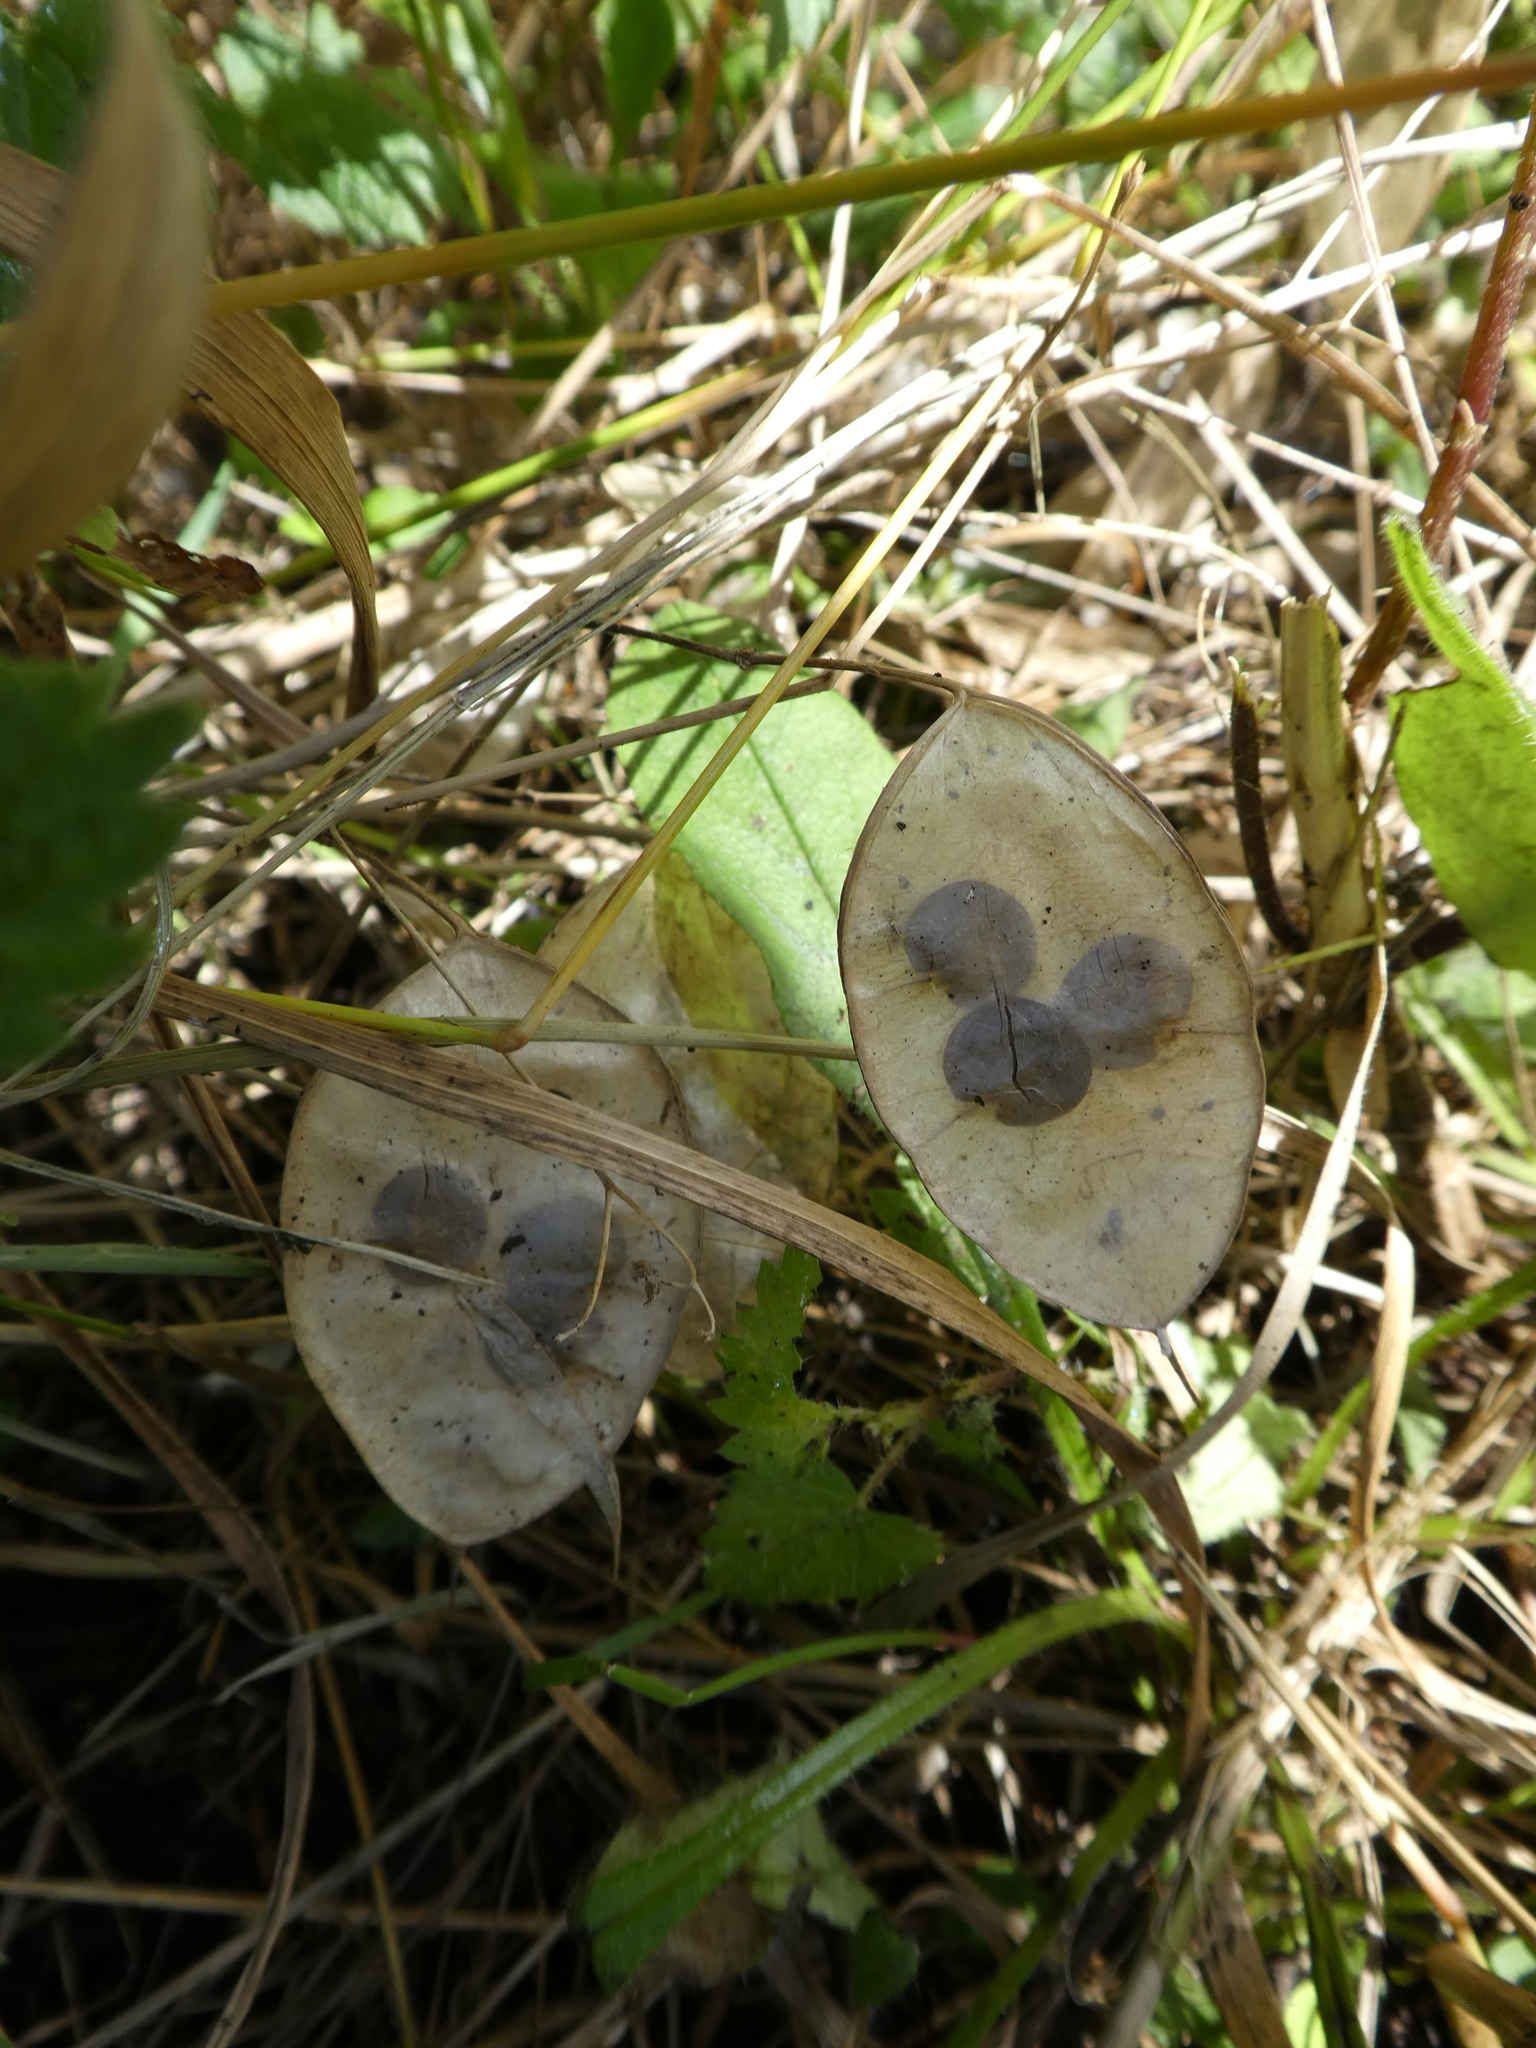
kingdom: Plantae
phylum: Tracheophyta
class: Magnoliopsida
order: Brassicales
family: Brassicaceae
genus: Lunaria
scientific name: Lunaria annua
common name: Honesty
